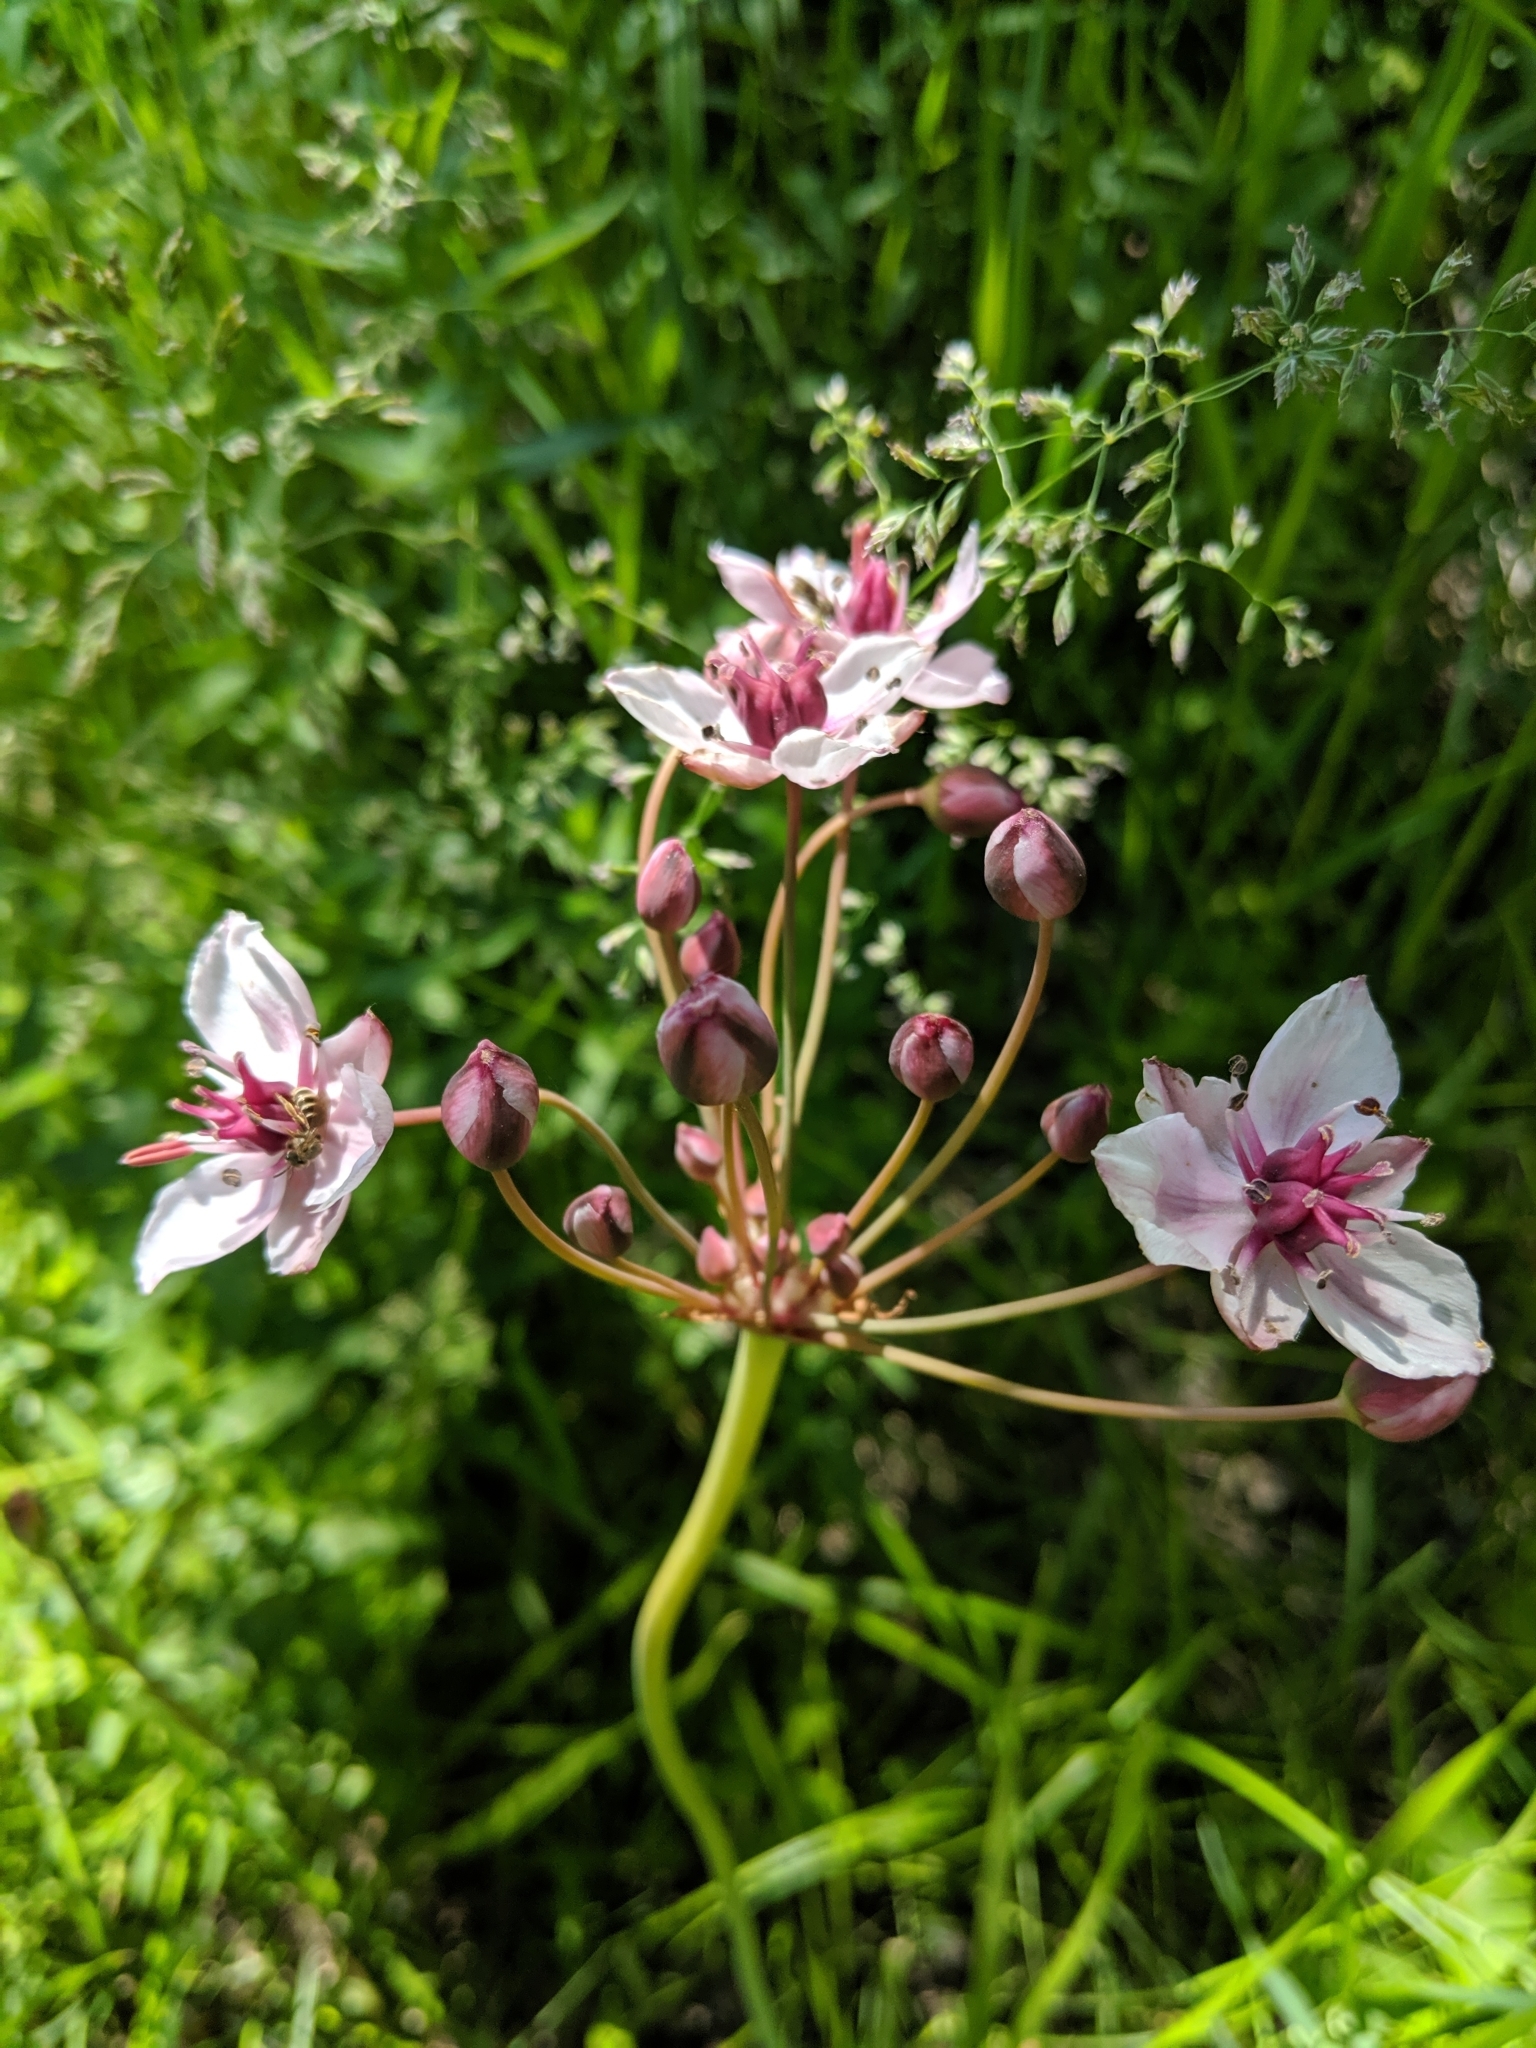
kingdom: Plantae
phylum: Tracheophyta
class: Liliopsida
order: Alismatales
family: Butomaceae
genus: Butomus
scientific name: Butomus umbellatus
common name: Flowering-rush
